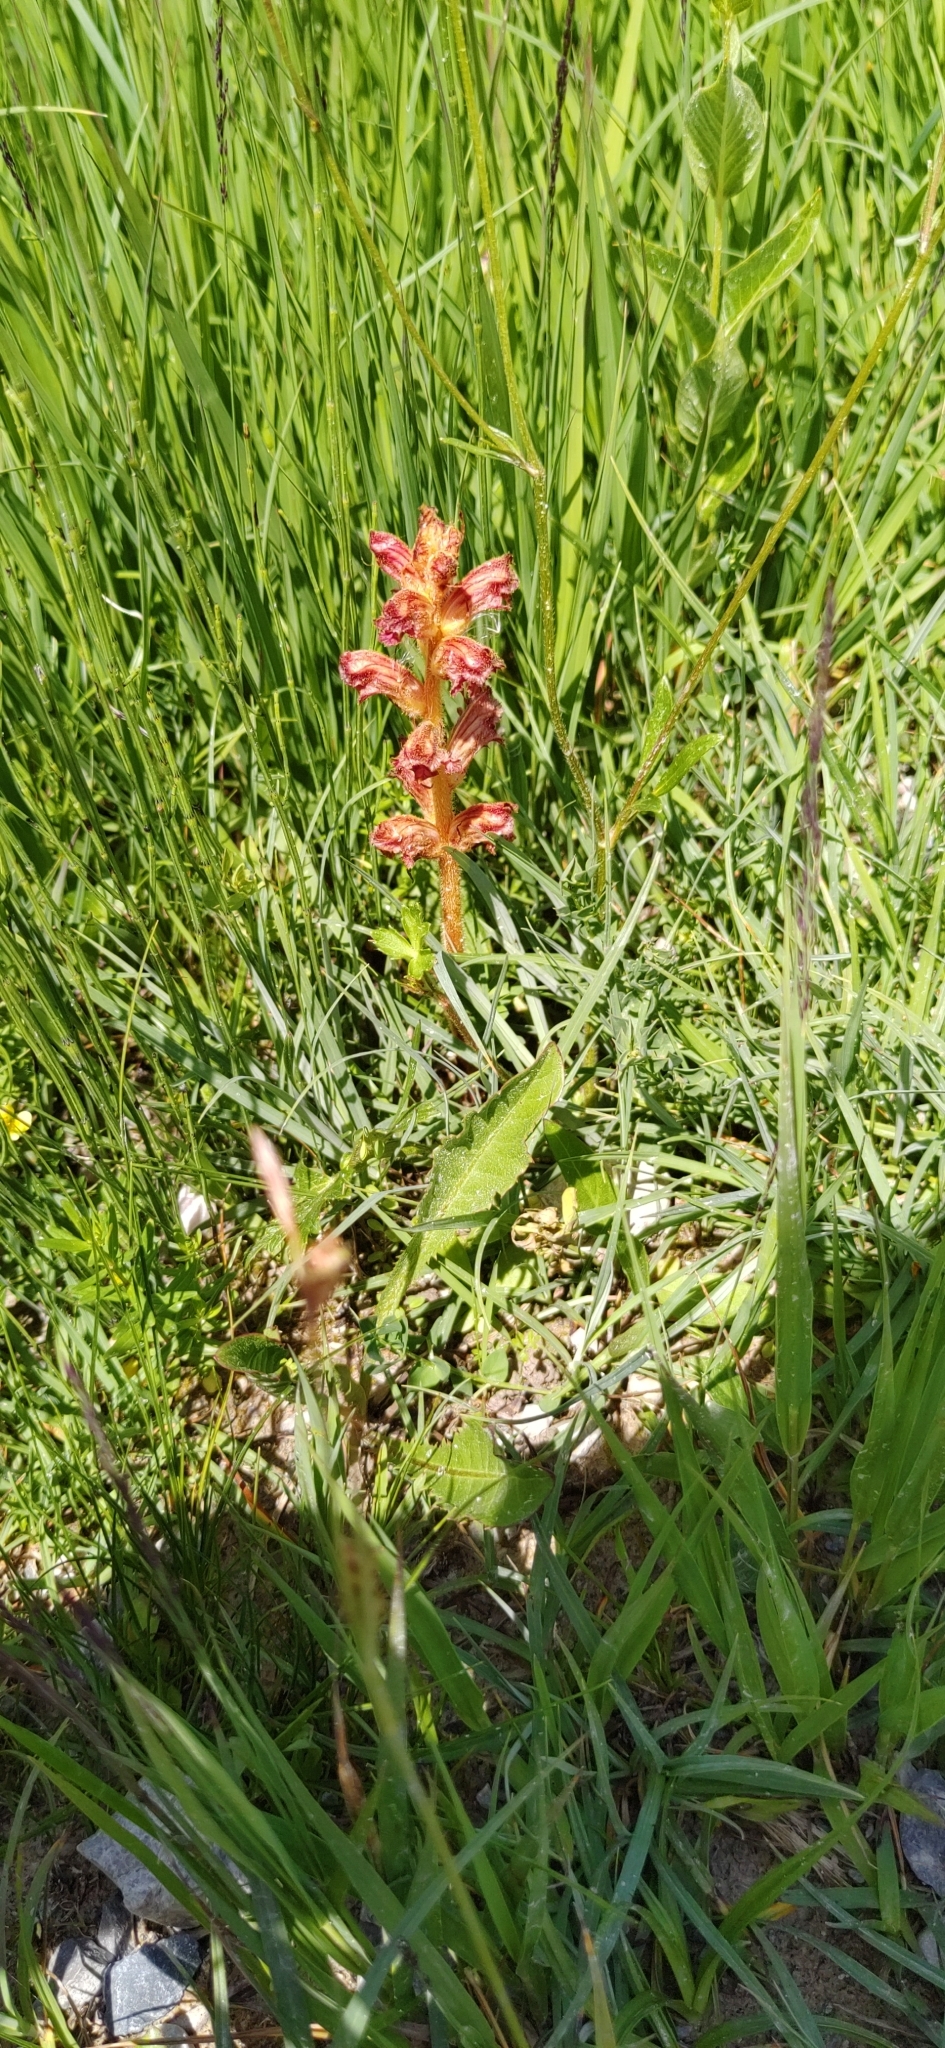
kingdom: Plantae
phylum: Tracheophyta
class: Magnoliopsida
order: Lamiales
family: Orobanchaceae
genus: Orobanche
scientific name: Orobanche gracilis
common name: Slender broomrape
